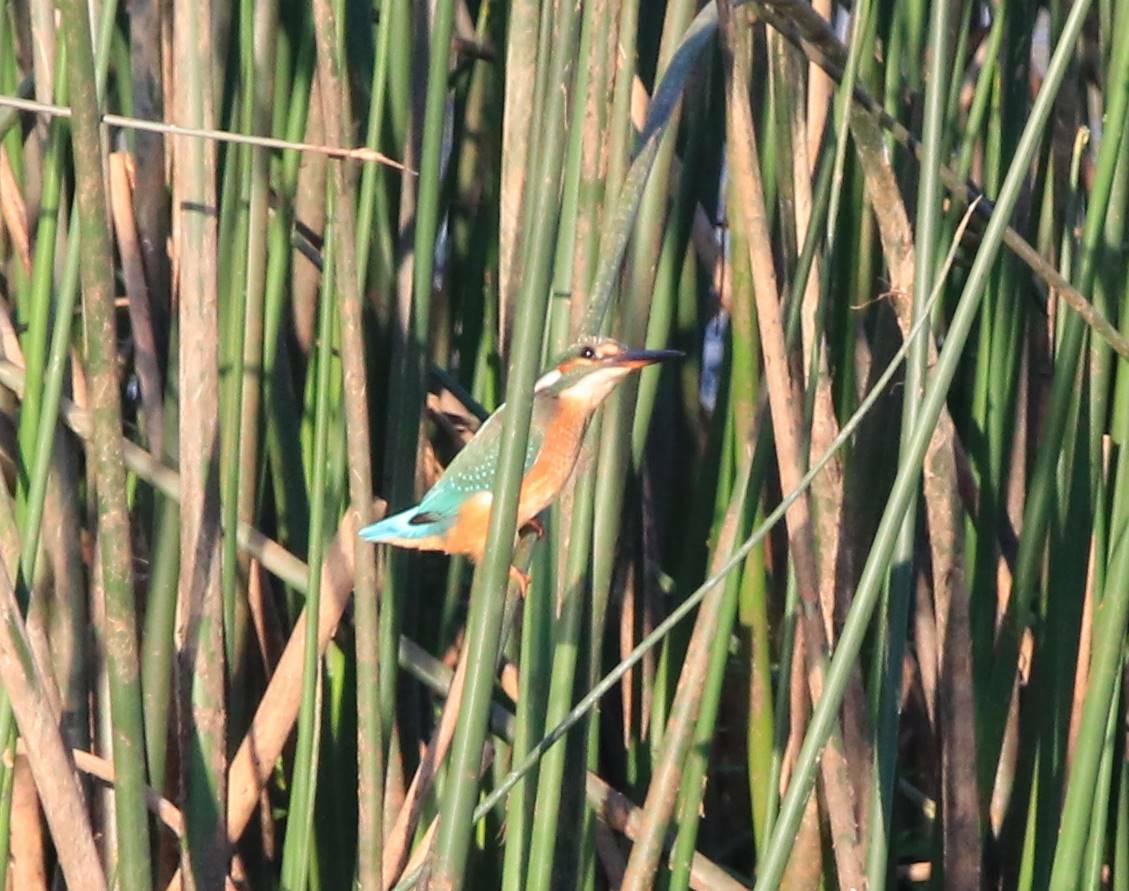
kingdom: Animalia
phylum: Chordata
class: Aves
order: Coraciiformes
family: Alcedinidae
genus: Alcedo
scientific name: Alcedo atthis
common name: Common kingfisher
